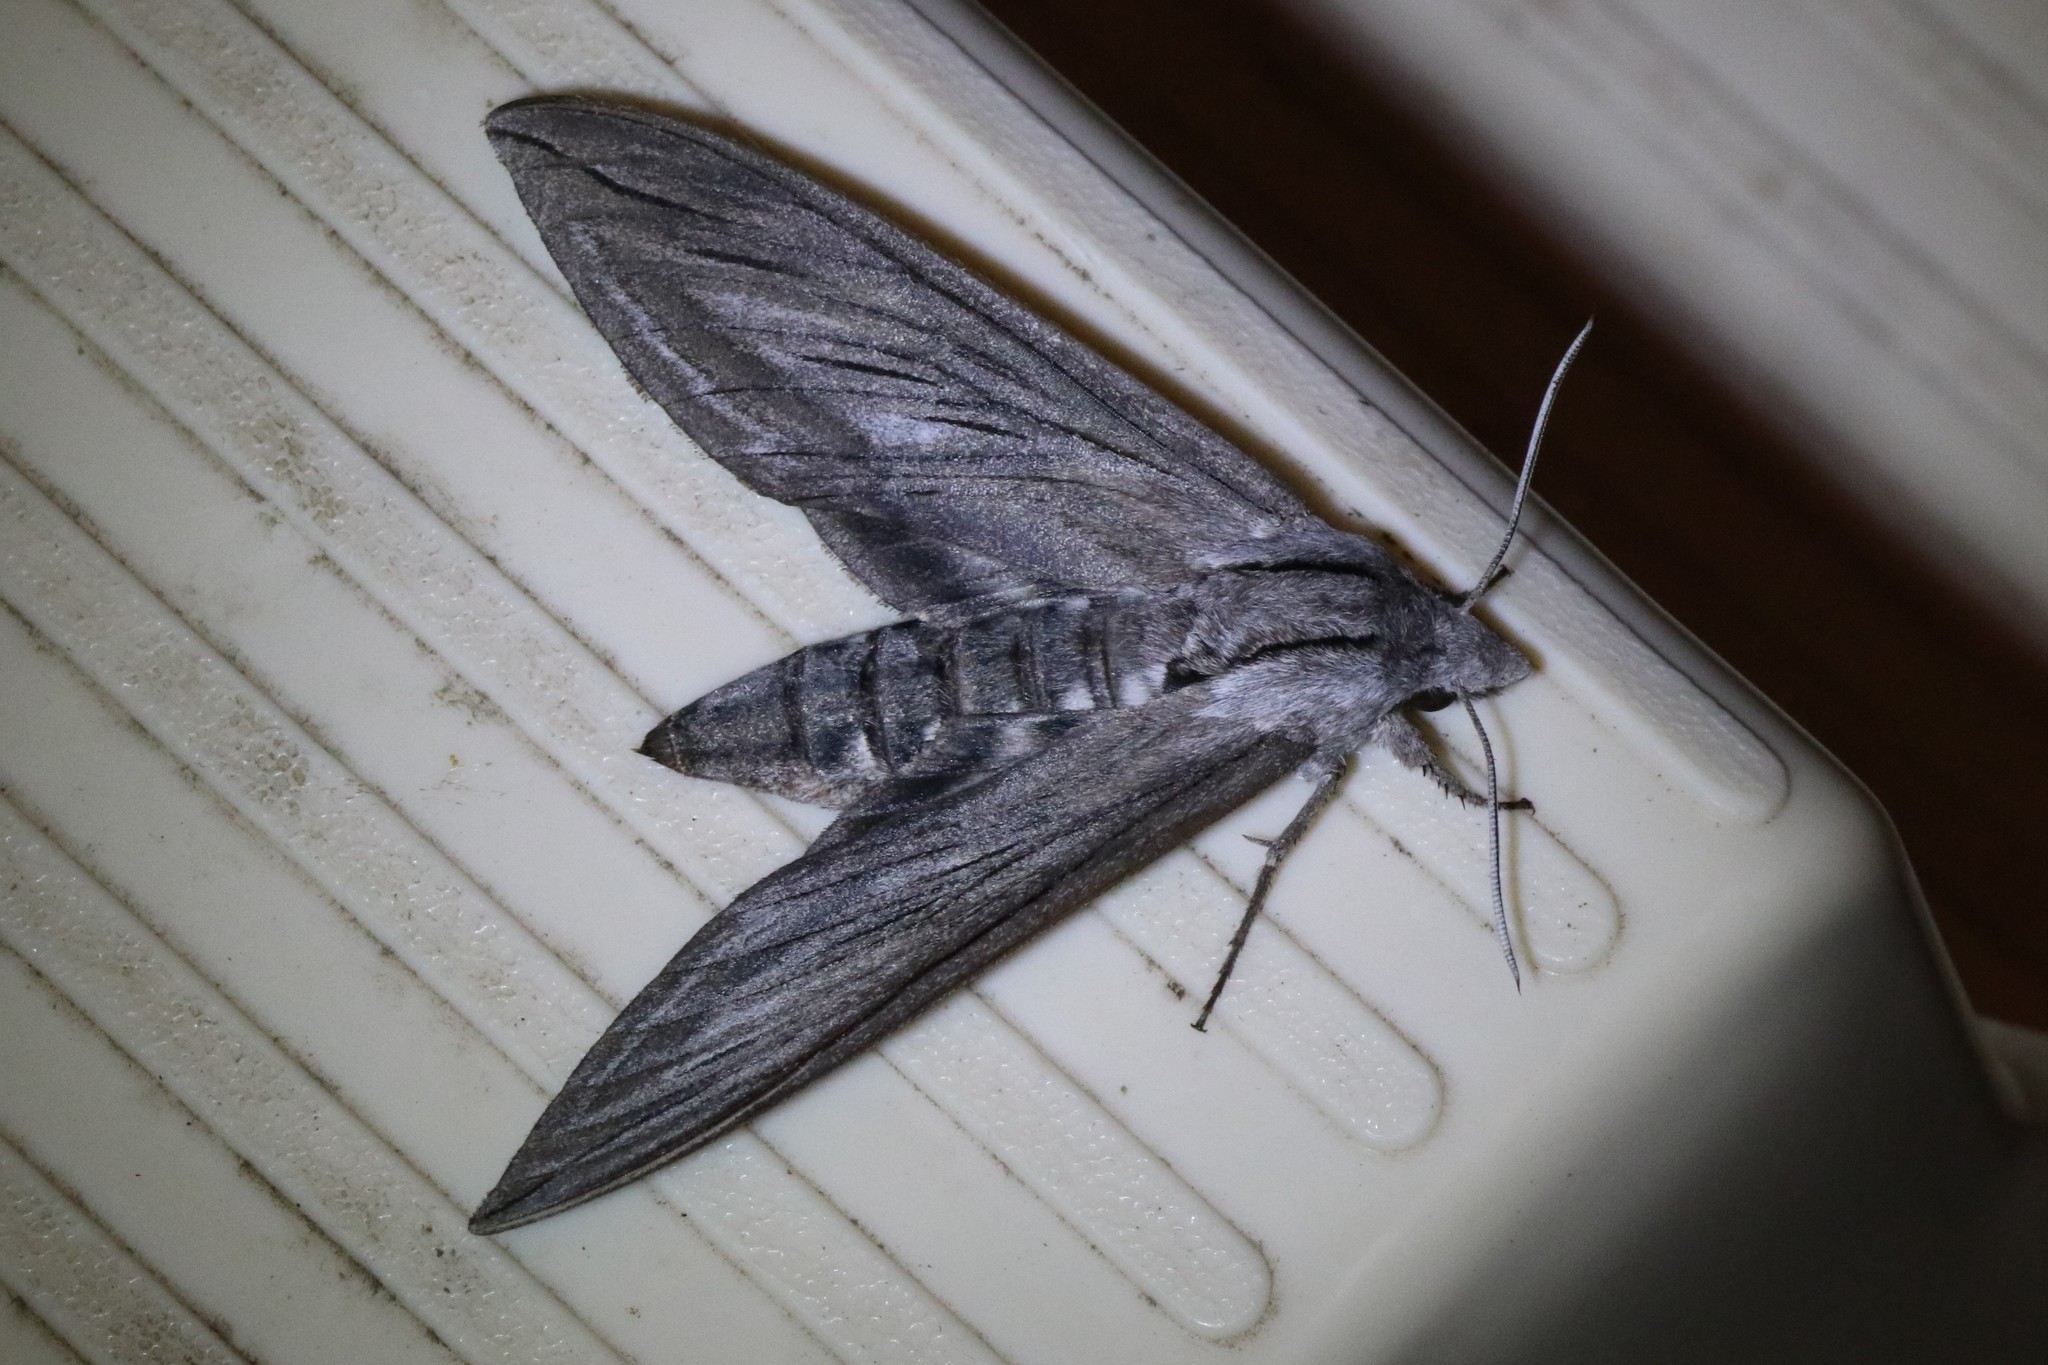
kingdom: Animalia
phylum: Arthropoda
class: Insecta
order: Lepidoptera
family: Sphingidae
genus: Sphinx
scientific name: Sphinx chersis
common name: Great ash sphinx
